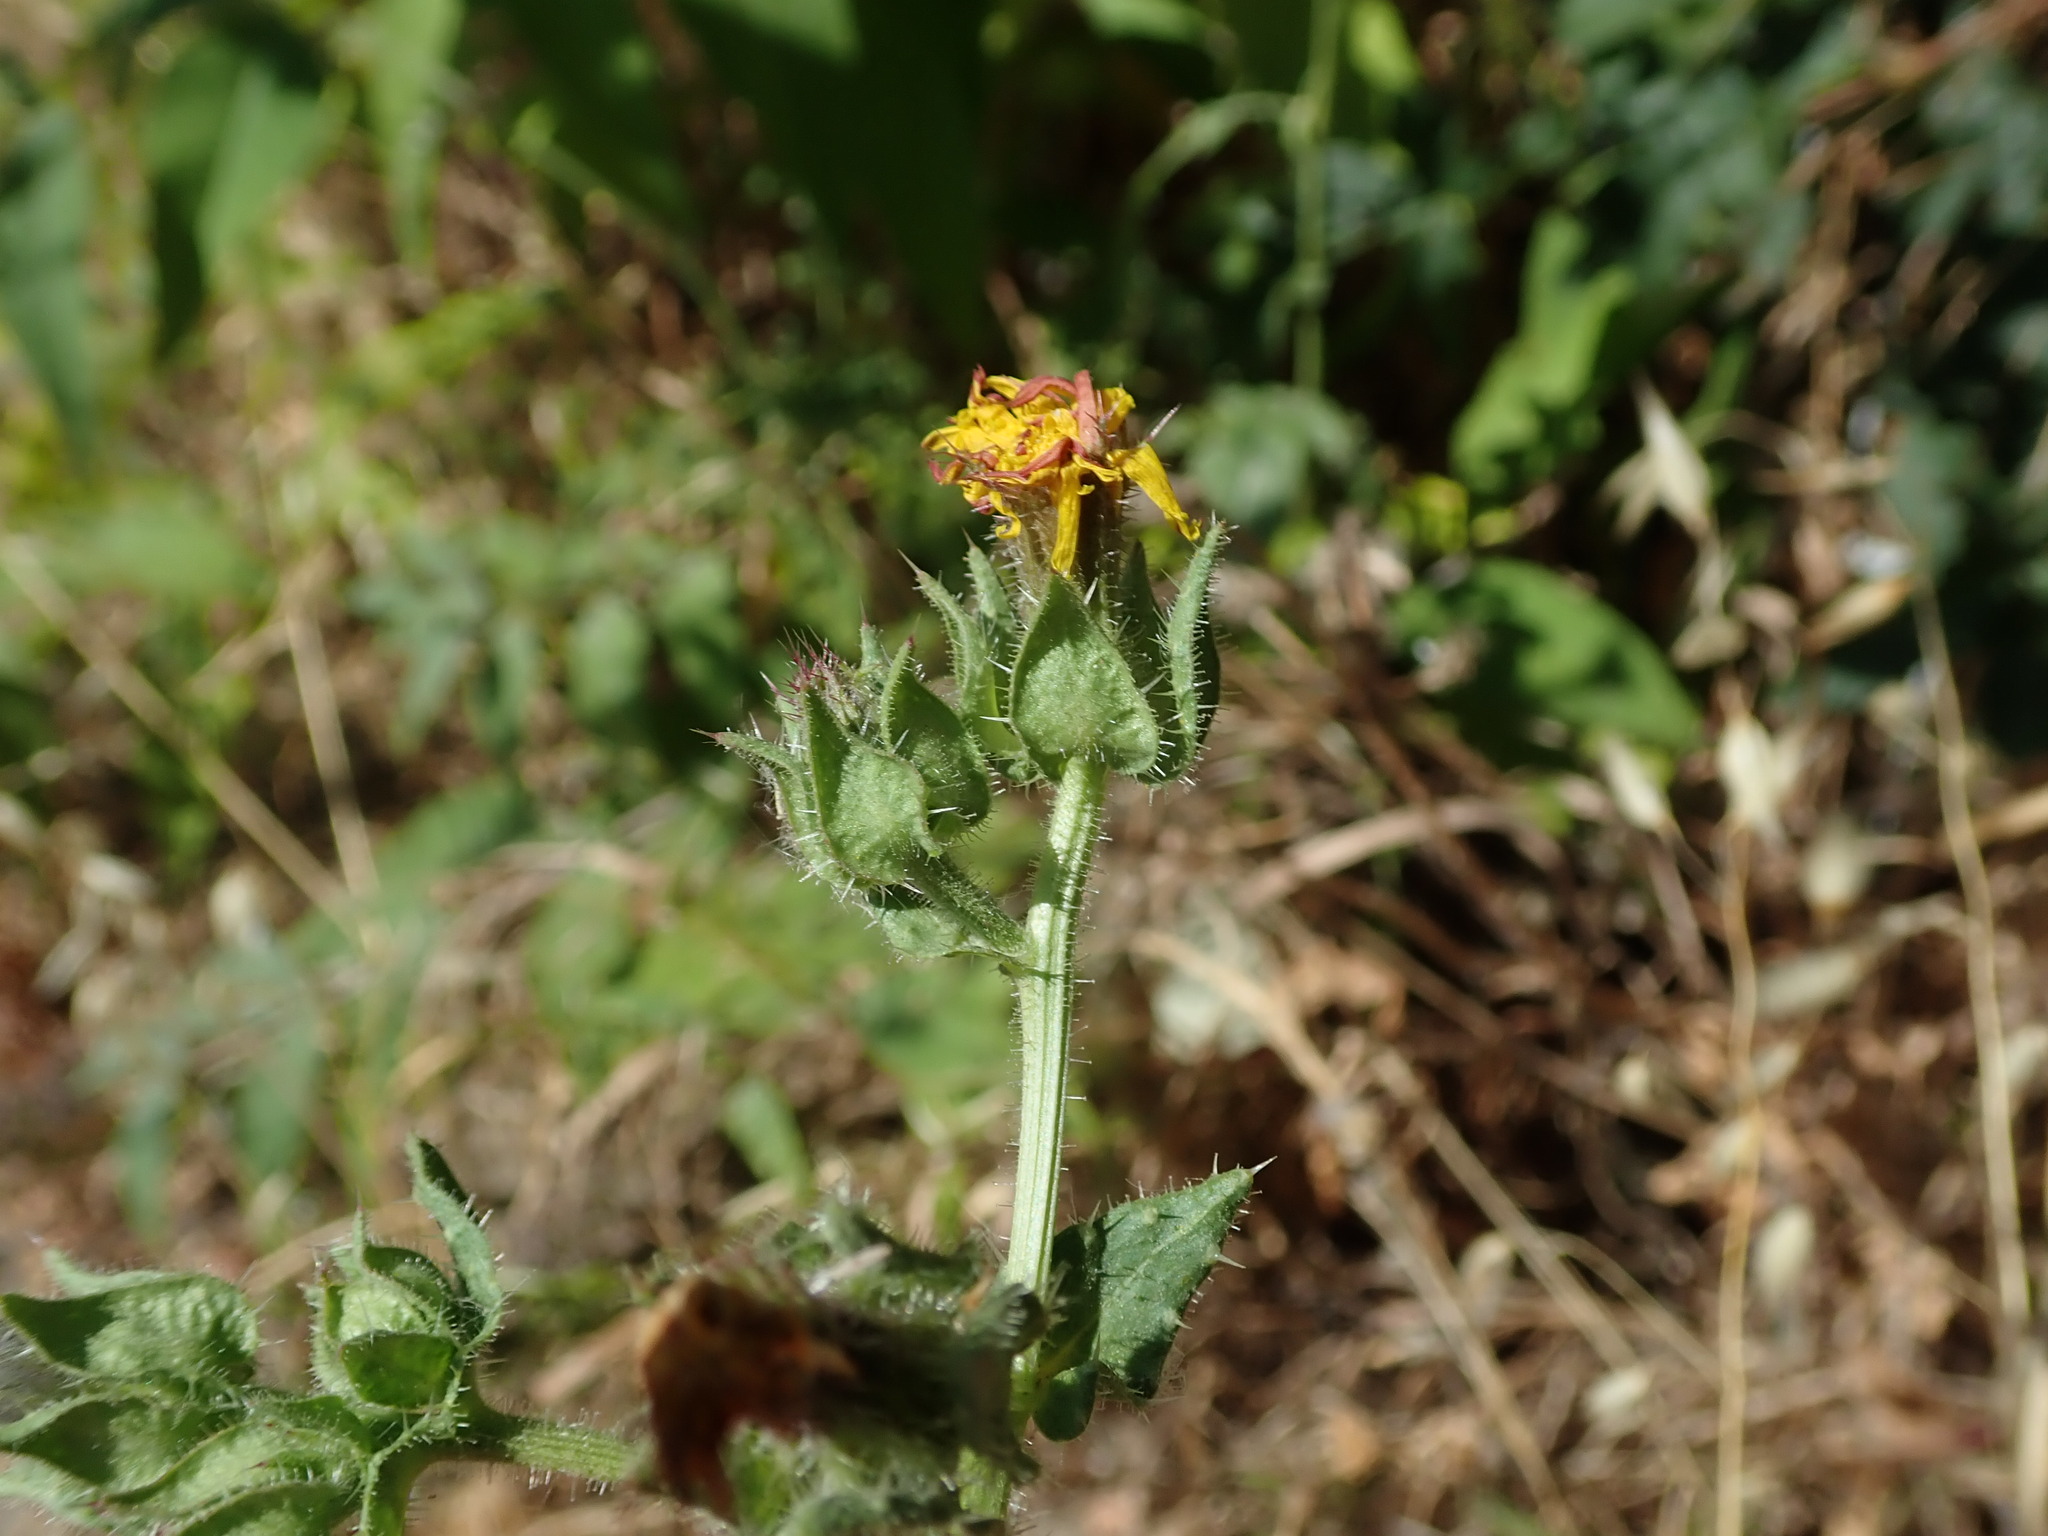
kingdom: Plantae
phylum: Tracheophyta
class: Magnoliopsida
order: Asterales
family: Asteraceae
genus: Helminthotheca
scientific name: Helminthotheca echioides
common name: Ox-tongue
